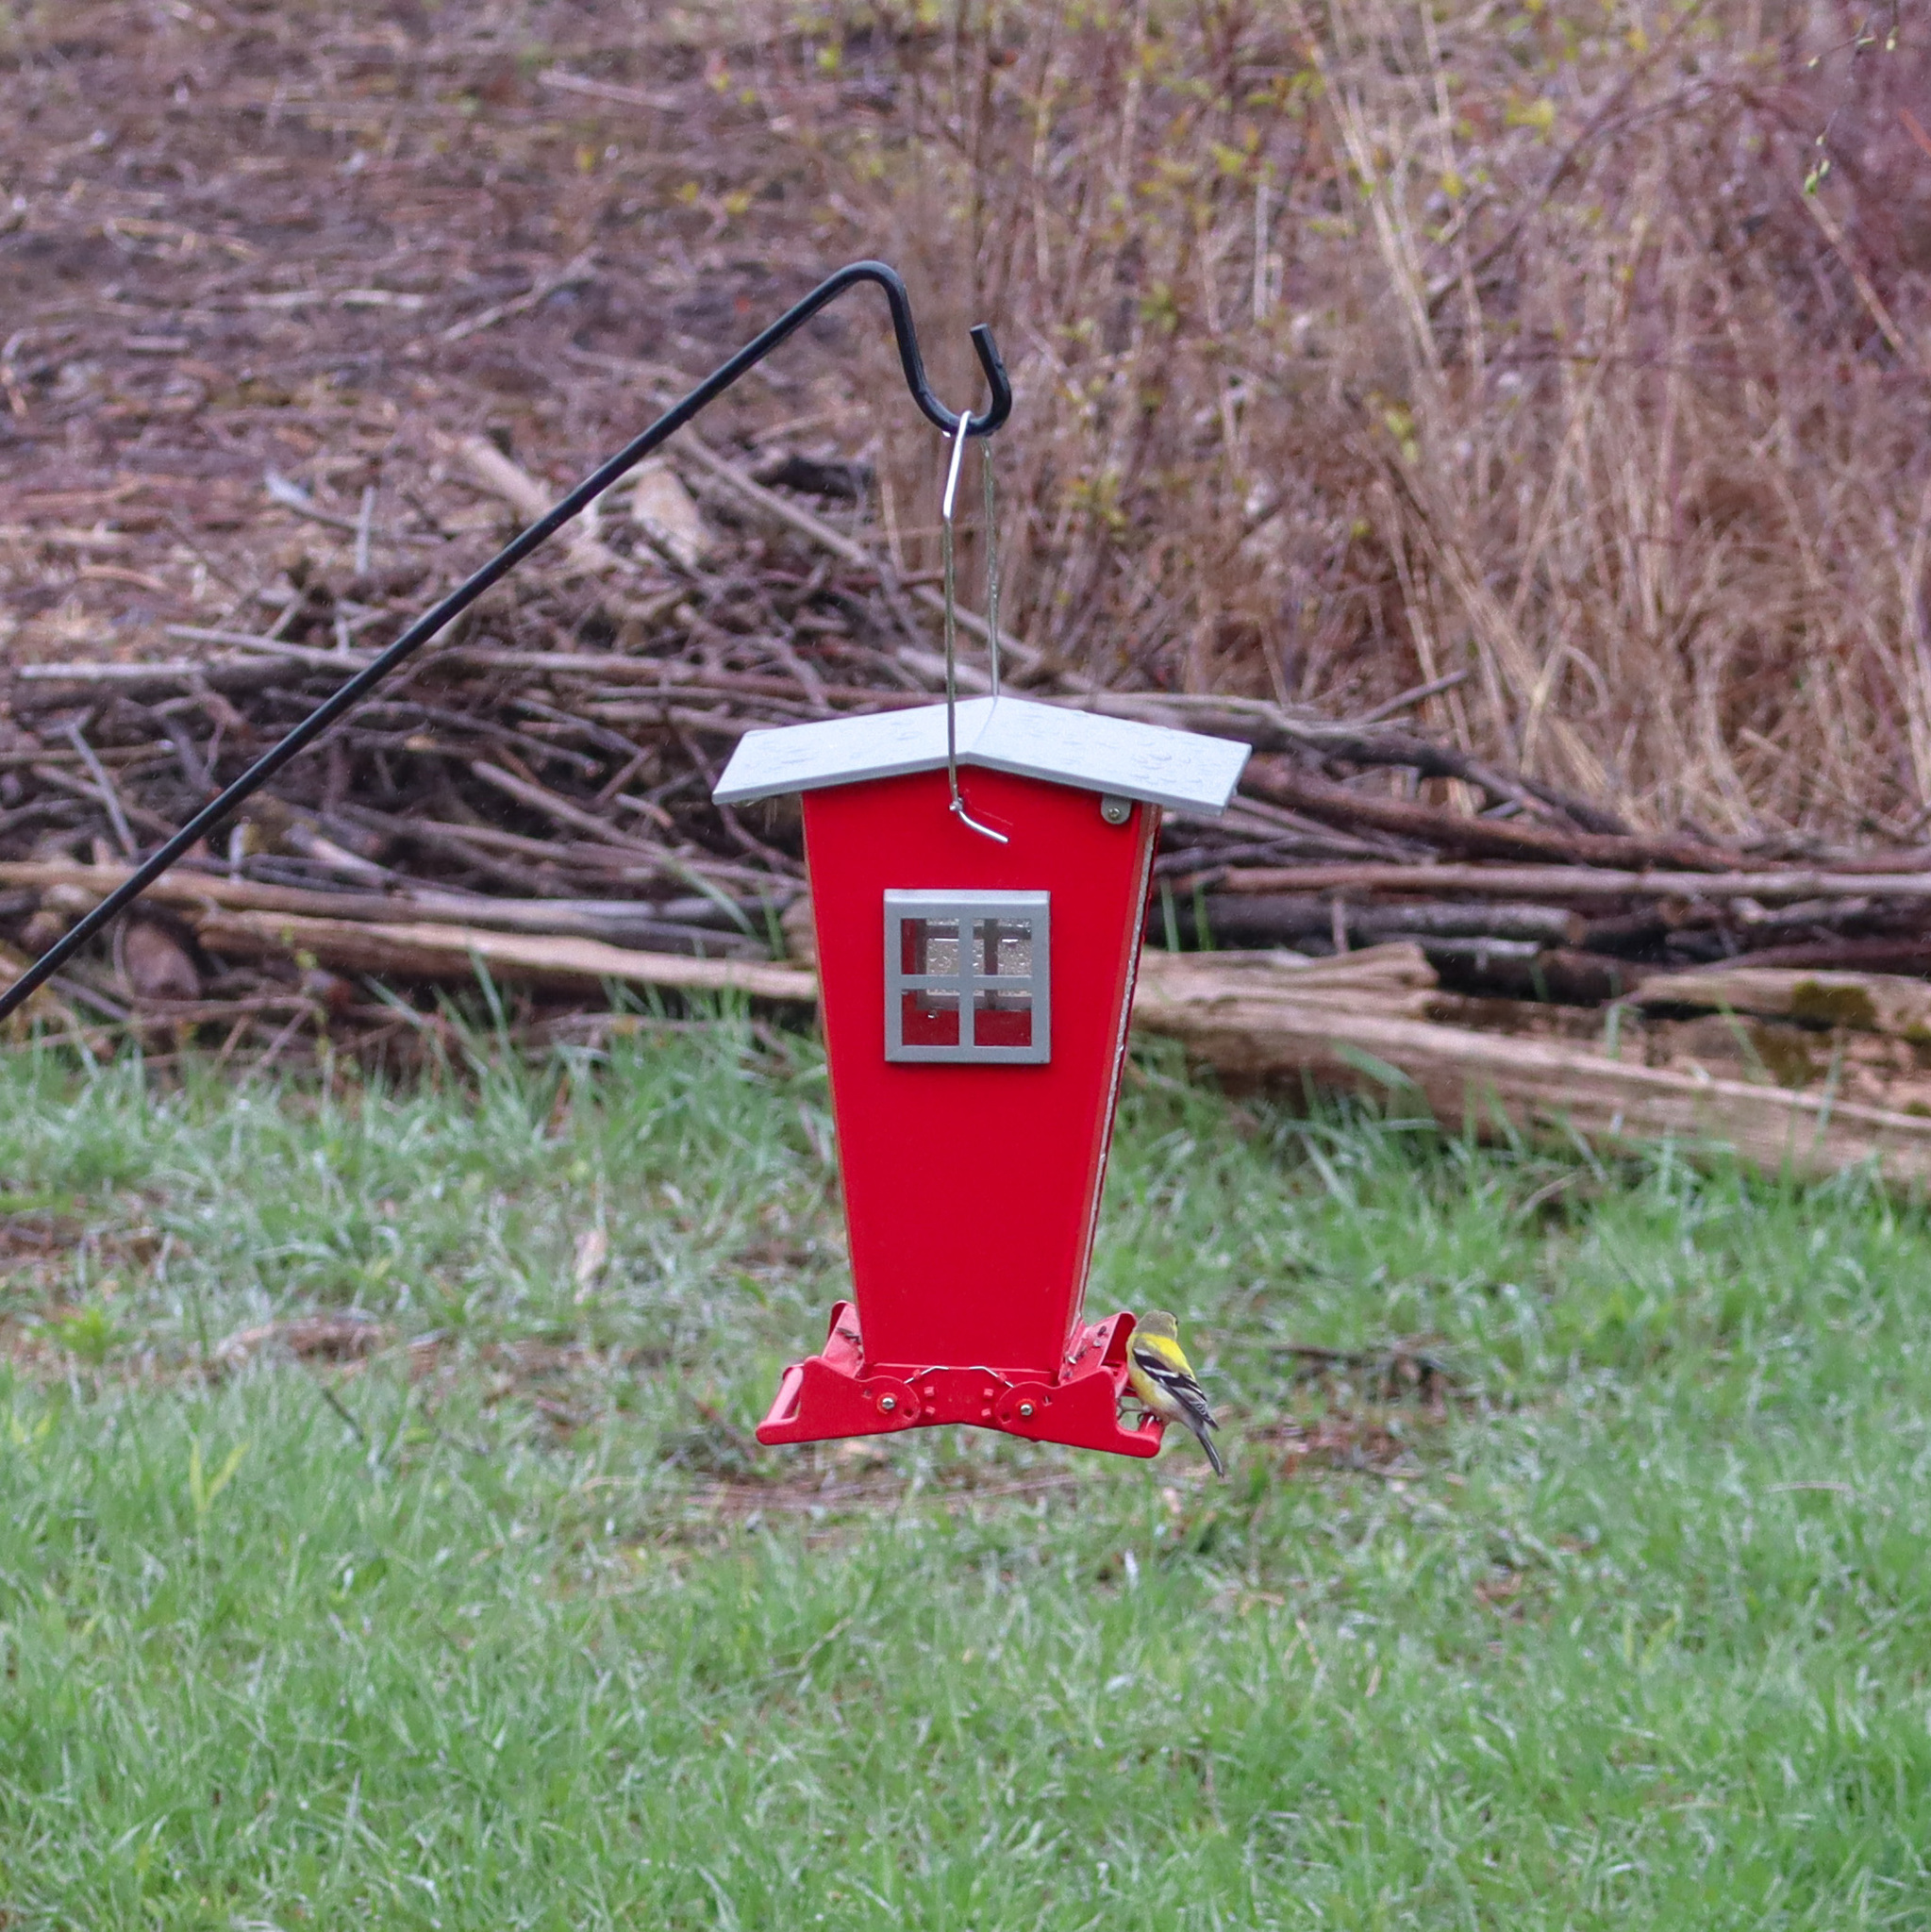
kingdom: Animalia
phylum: Chordata
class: Aves
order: Passeriformes
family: Fringillidae
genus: Spinus
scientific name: Spinus tristis
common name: American goldfinch
